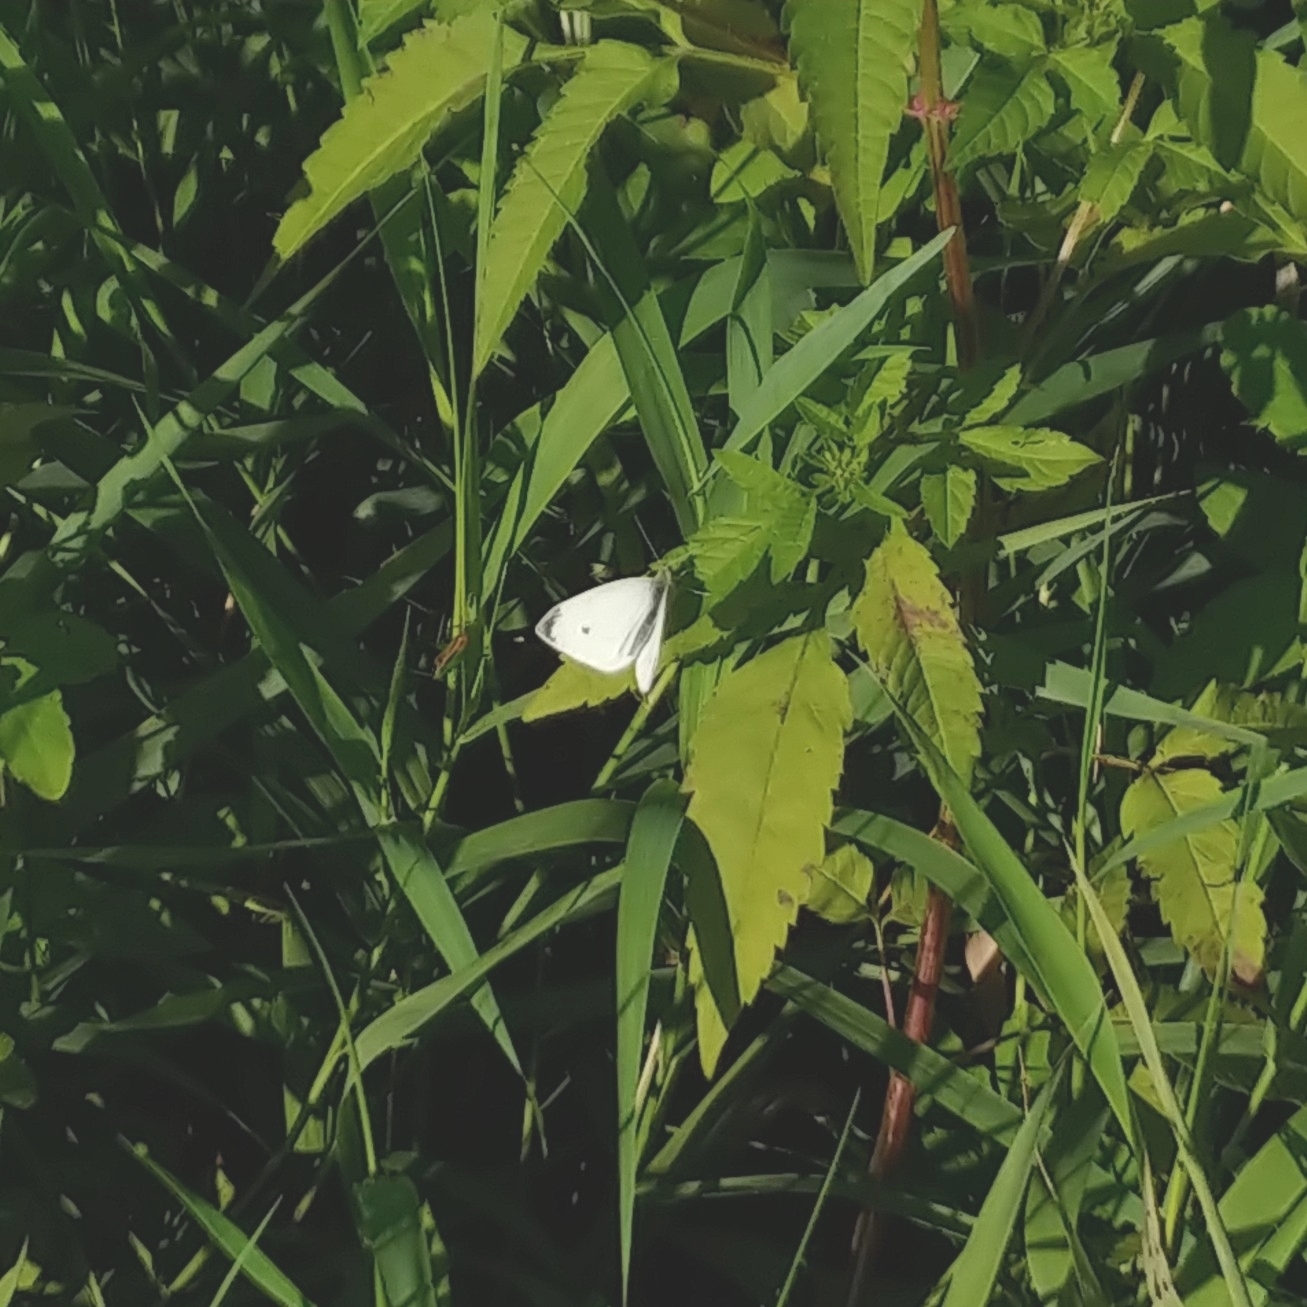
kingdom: Animalia
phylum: Arthropoda
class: Insecta
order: Lepidoptera
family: Pieridae
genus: Pieris
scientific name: Pieris rapae
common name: Small white
